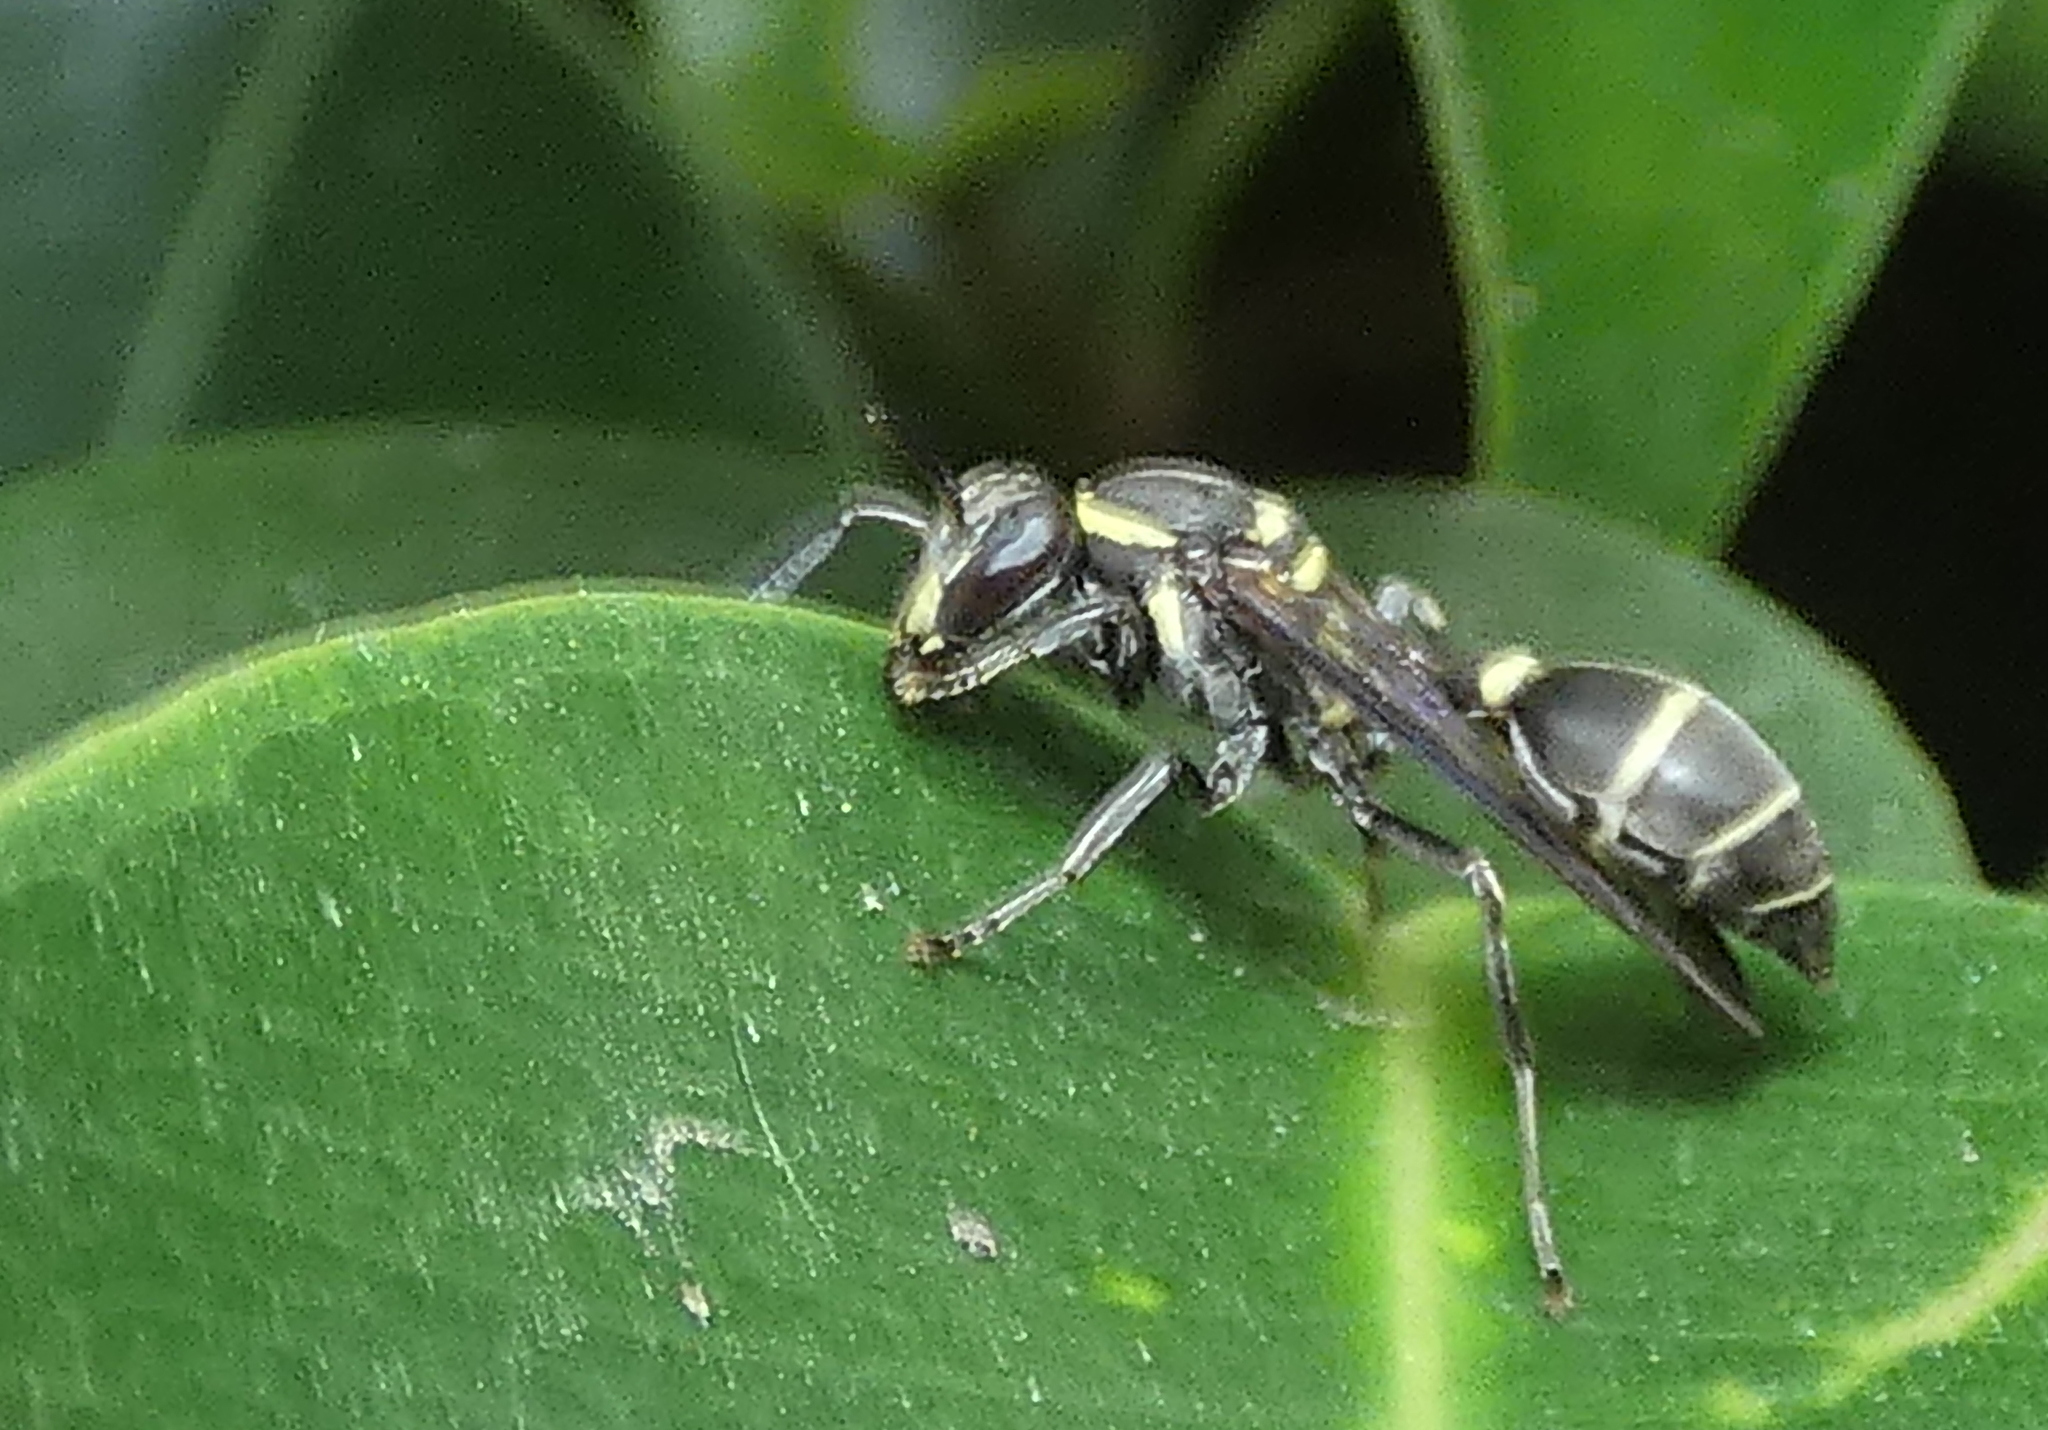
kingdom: Animalia
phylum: Arthropoda
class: Insecta
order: Hymenoptera
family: Eumenidae
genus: Polybia
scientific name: Polybia occidentalis
